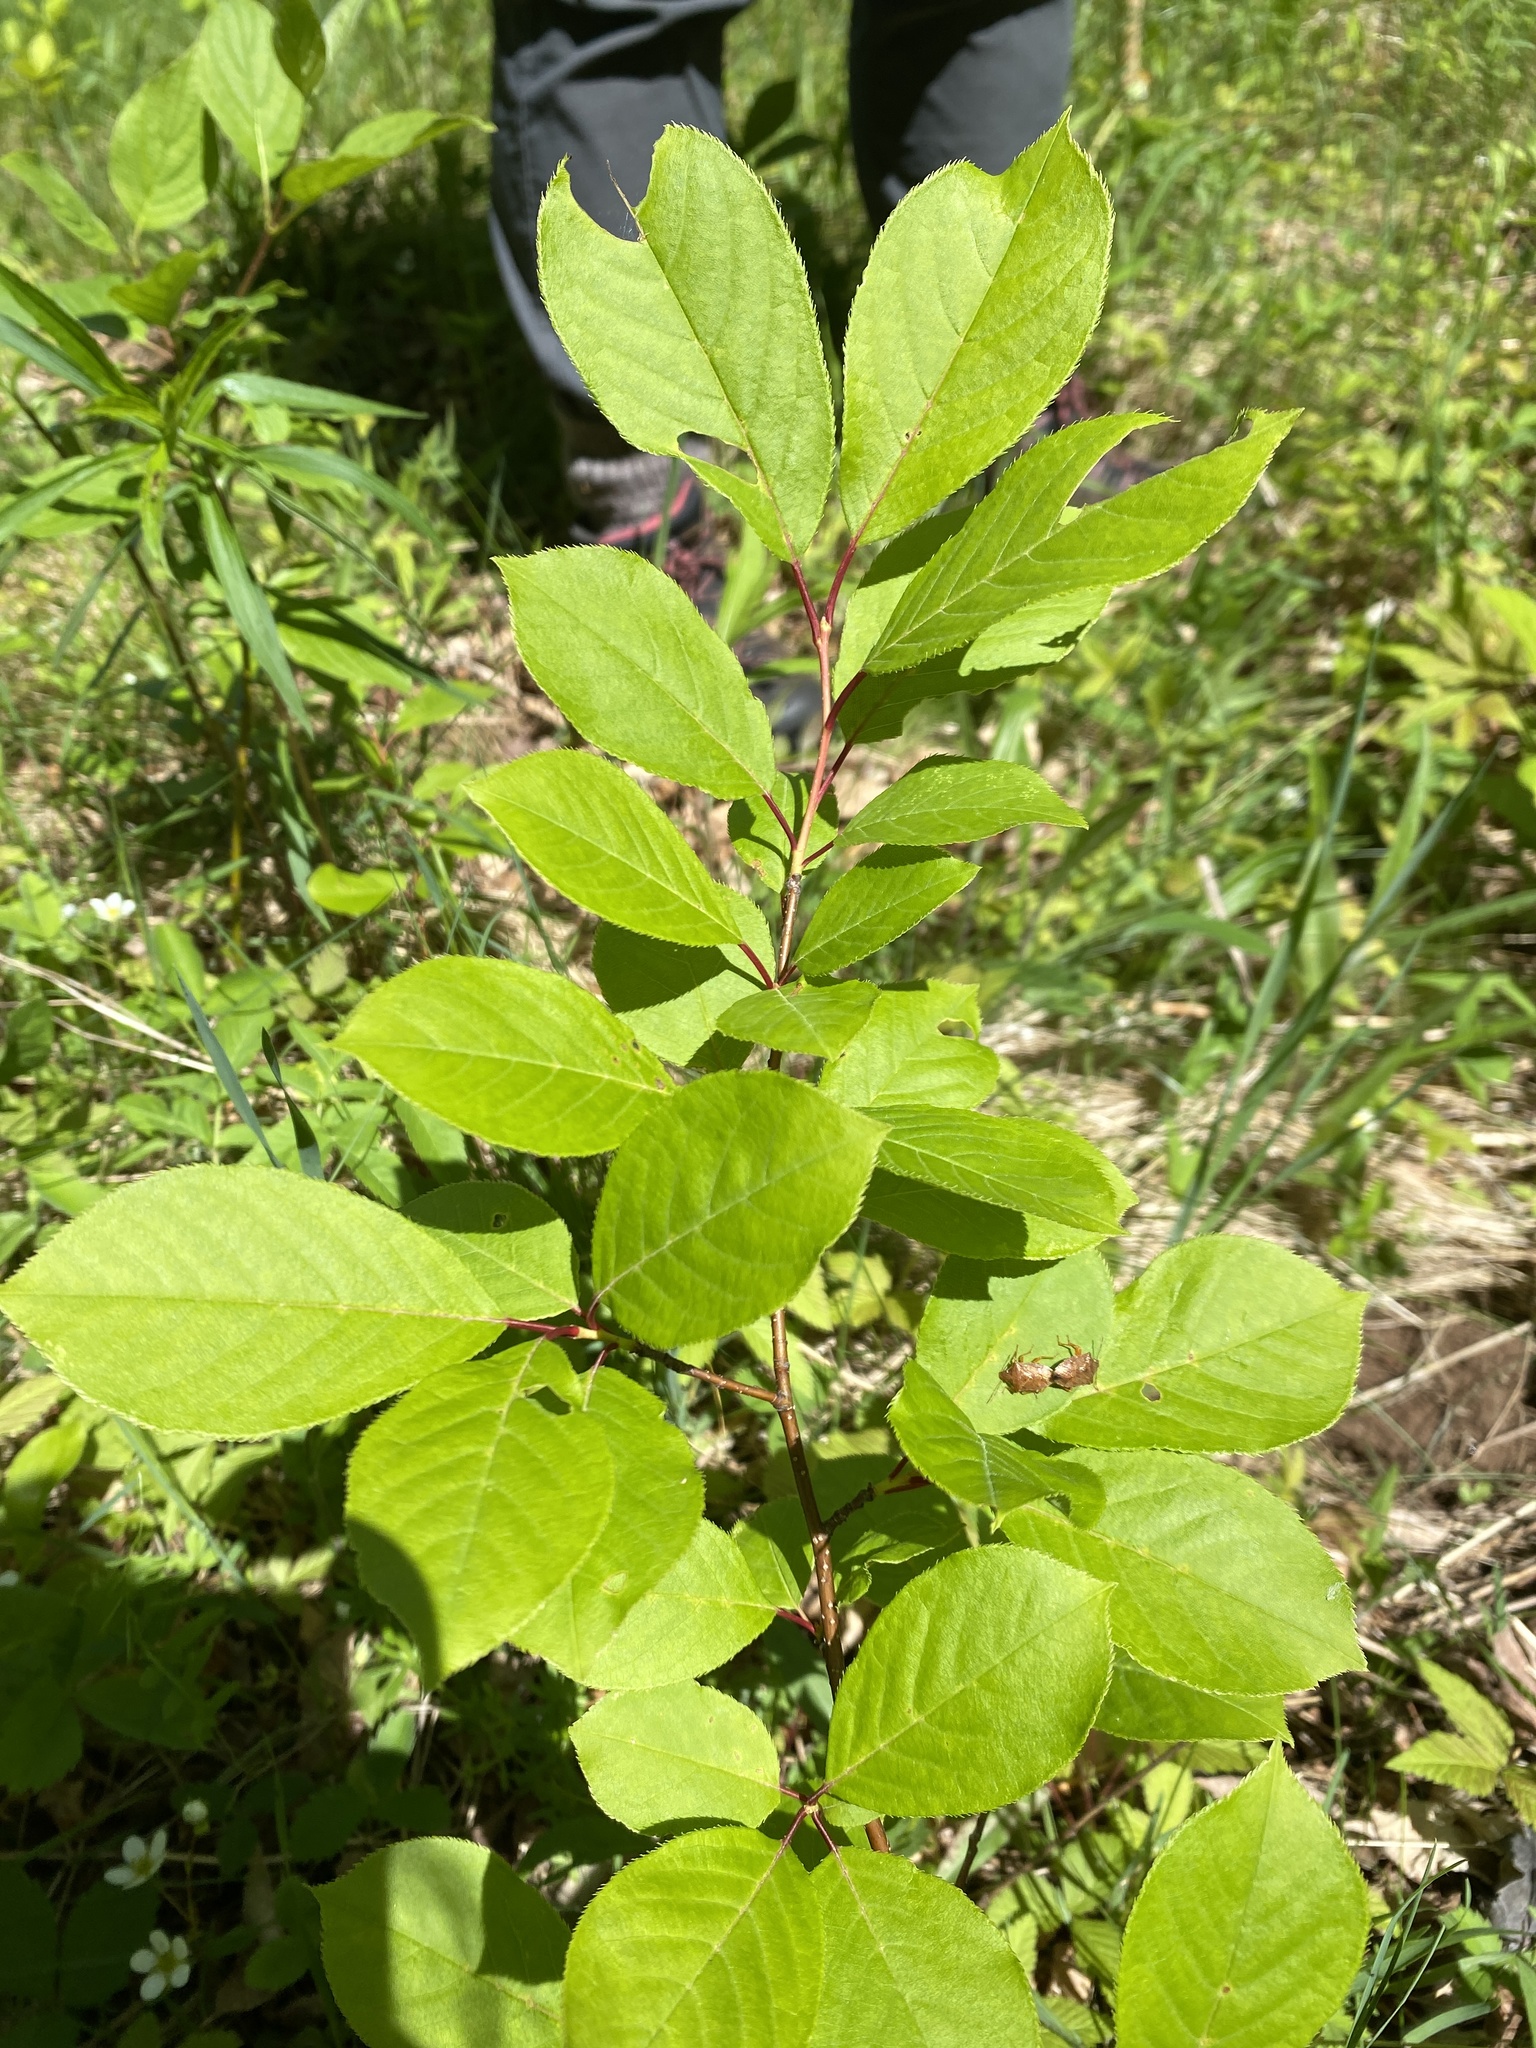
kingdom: Plantae
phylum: Tracheophyta
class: Magnoliopsida
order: Rosales
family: Rosaceae
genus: Prunus
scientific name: Prunus virginiana
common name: Chokecherry
